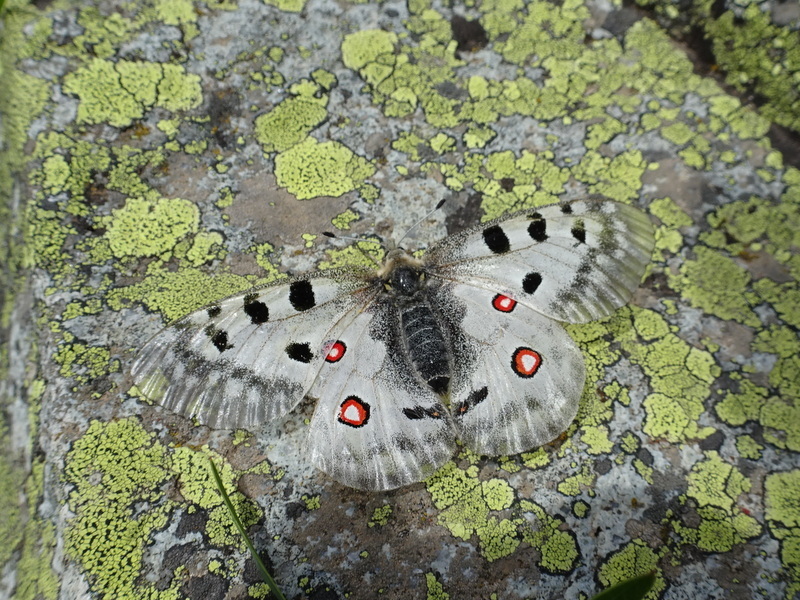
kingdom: Animalia
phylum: Arthropoda
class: Insecta
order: Lepidoptera
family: Papilionidae
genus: Parnassius
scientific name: Parnassius apollo
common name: Apollo
